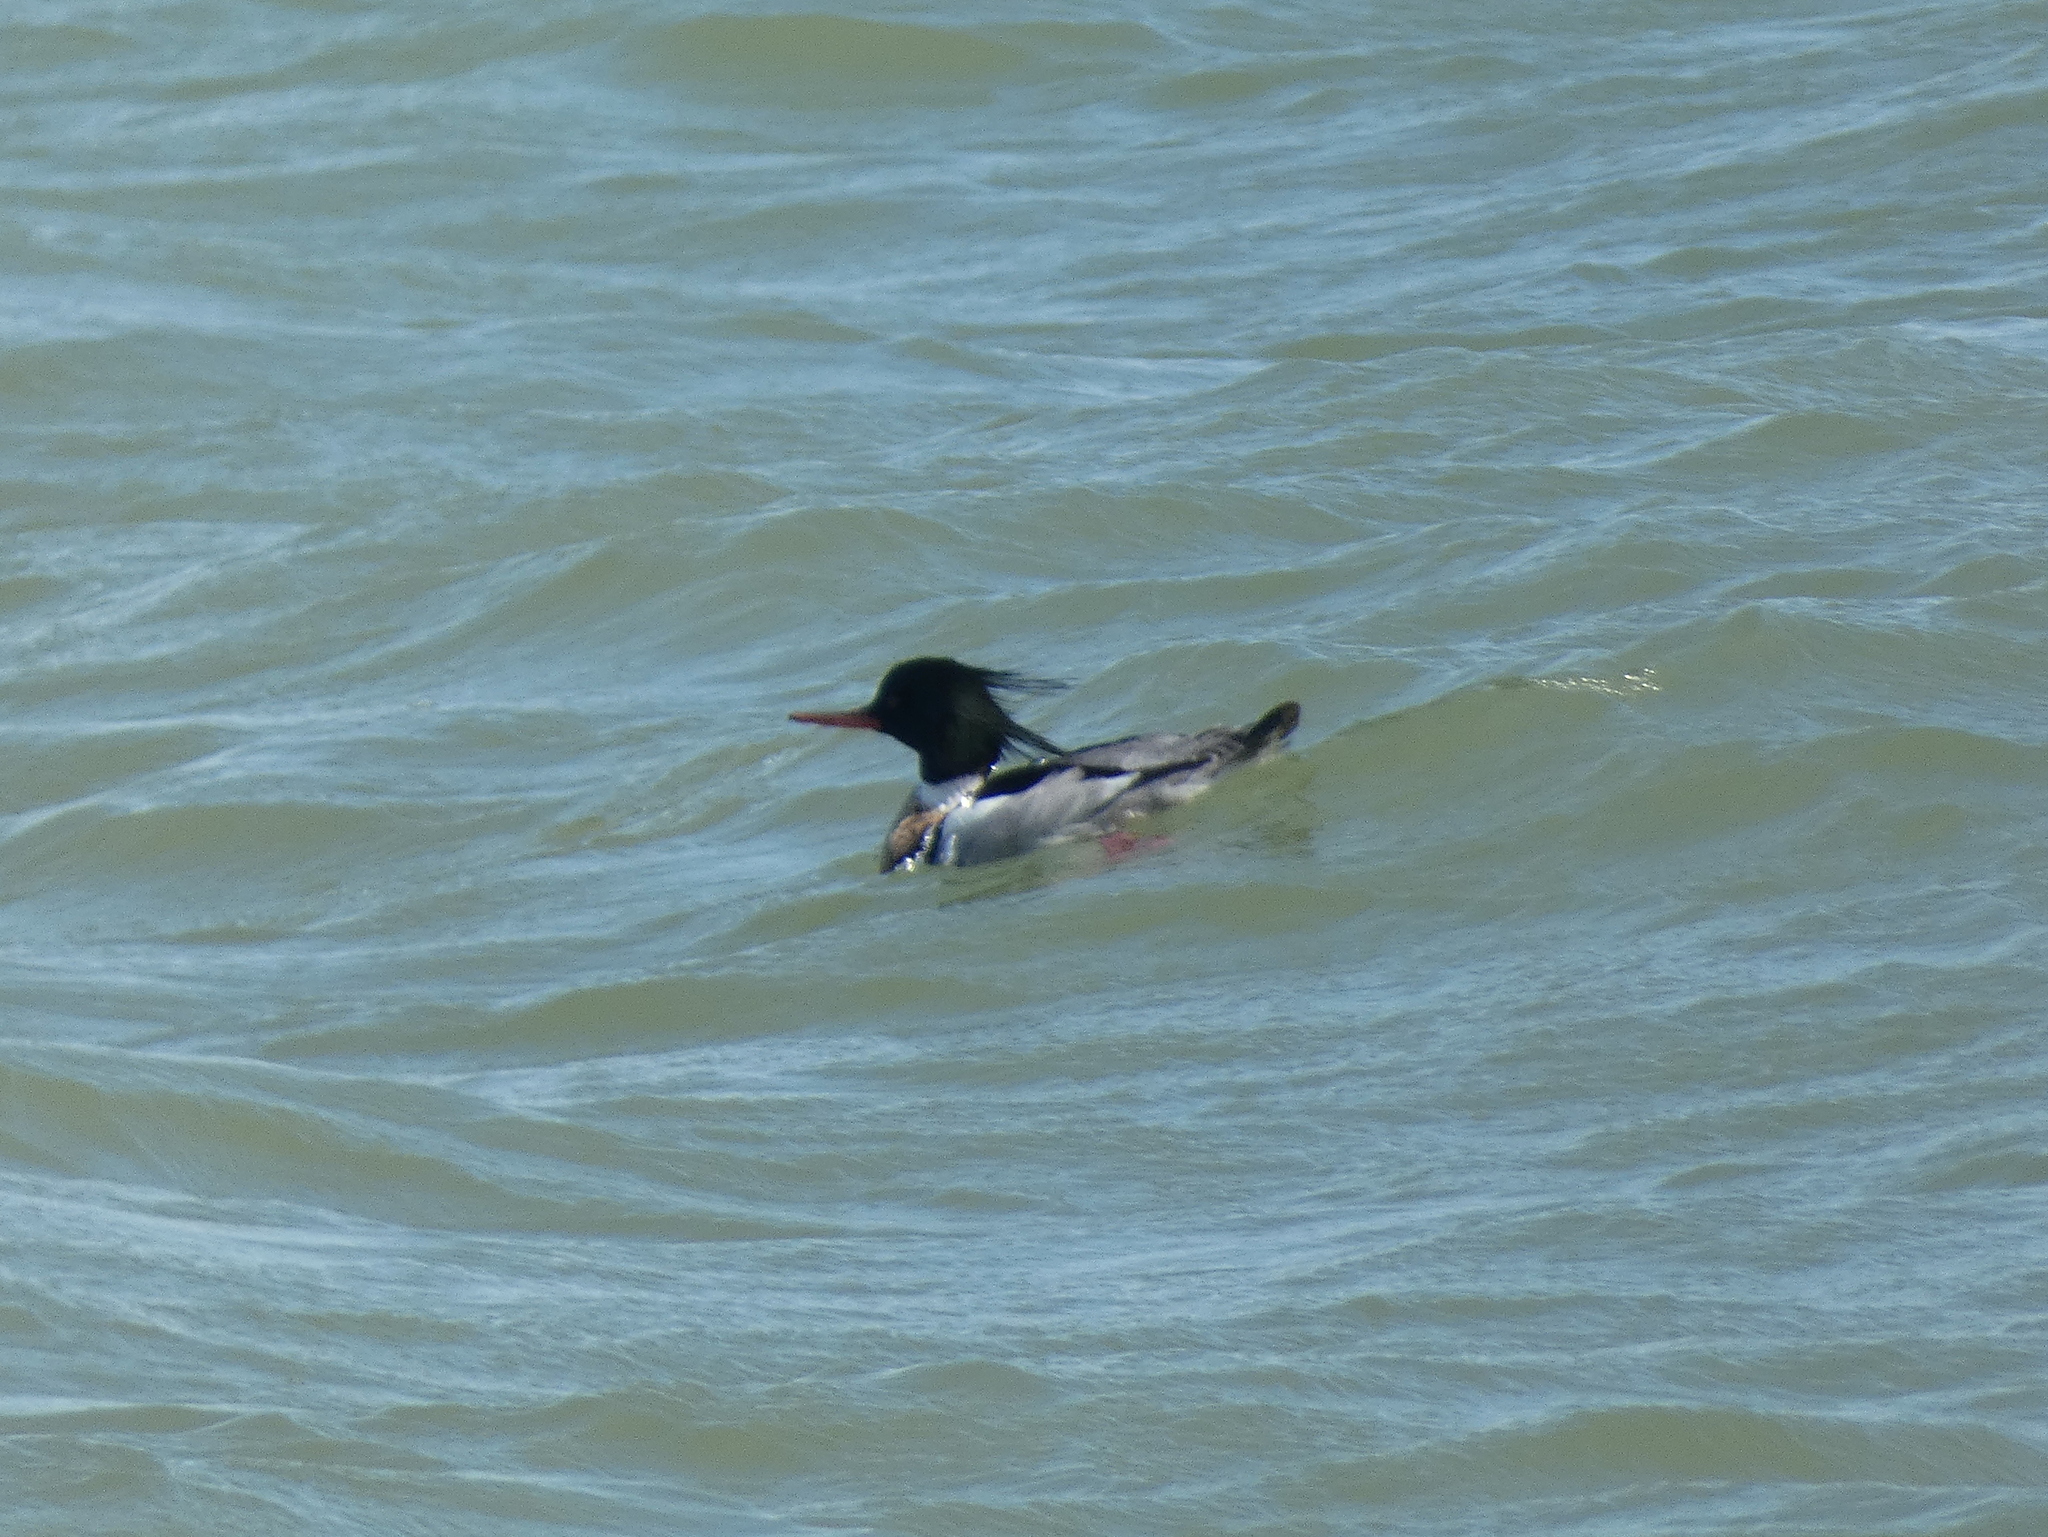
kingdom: Animalia
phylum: Chordata
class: Aves
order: Anseriformes
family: Anatidae
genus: Mergus
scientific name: Mergus serrator
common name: Red-breasted merganser
